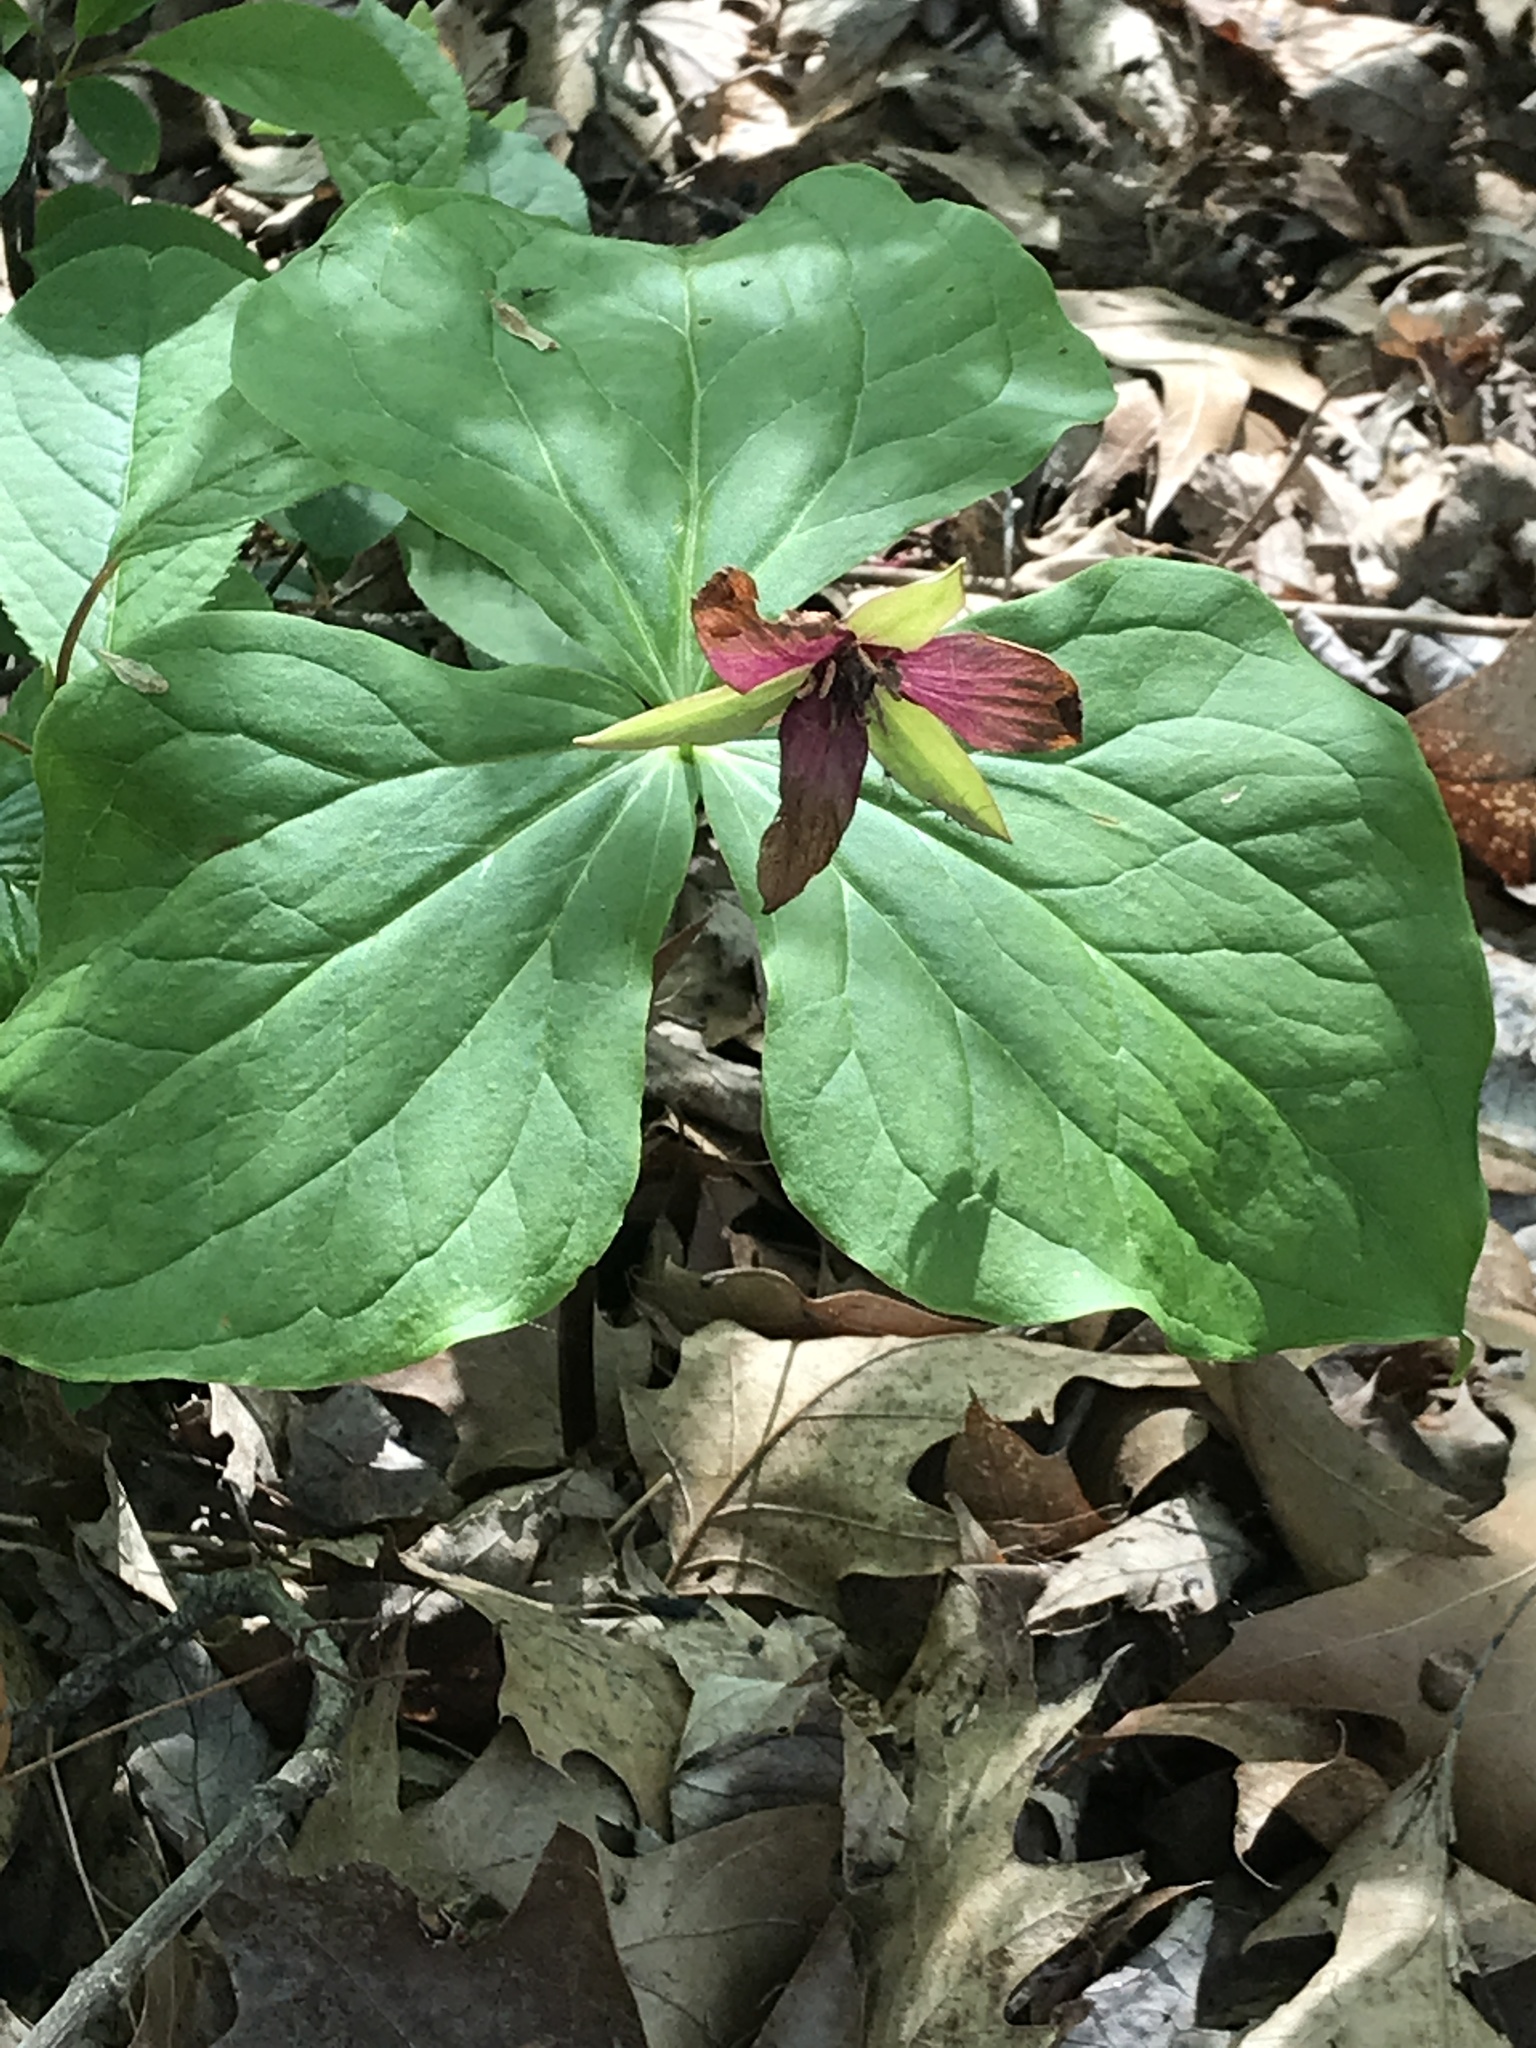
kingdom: Plantae
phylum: Tracheophyta
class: Liliopsida
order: Liliales
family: Melanthiaceae
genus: Trillium
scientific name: Trillium erectum
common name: Purple trillium
